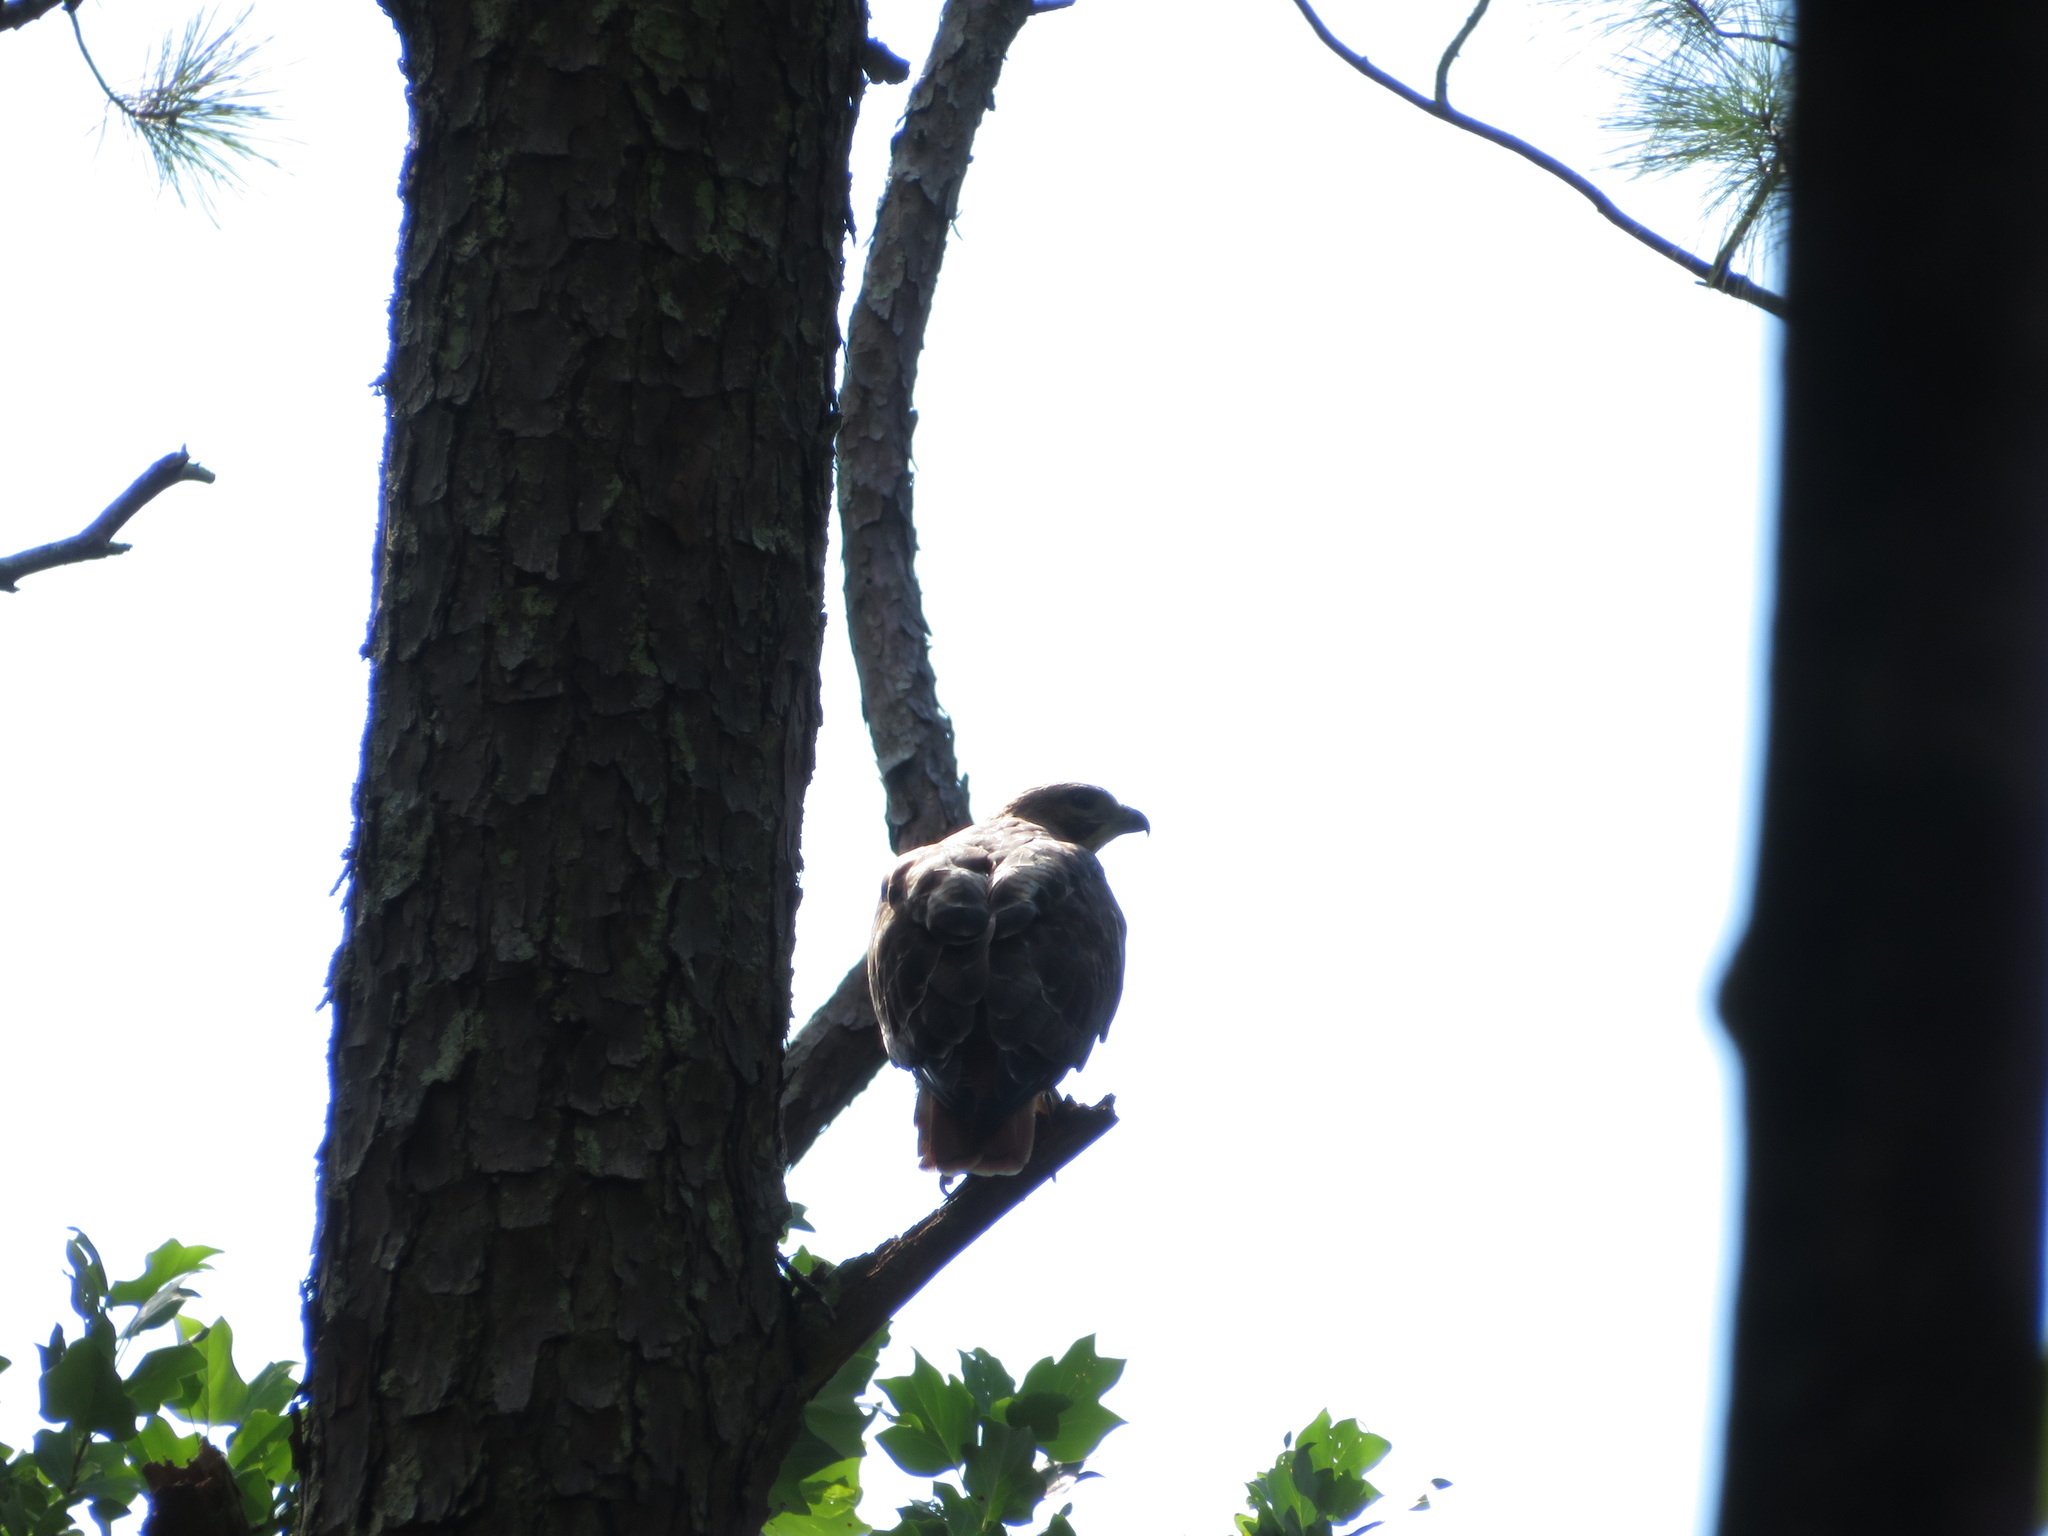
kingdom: Animalia
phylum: Chordata
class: Aves
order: Accipitriformes
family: Accipitridae
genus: Buteo
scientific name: Buteo jamaicensis
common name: Red-tailed hawk
